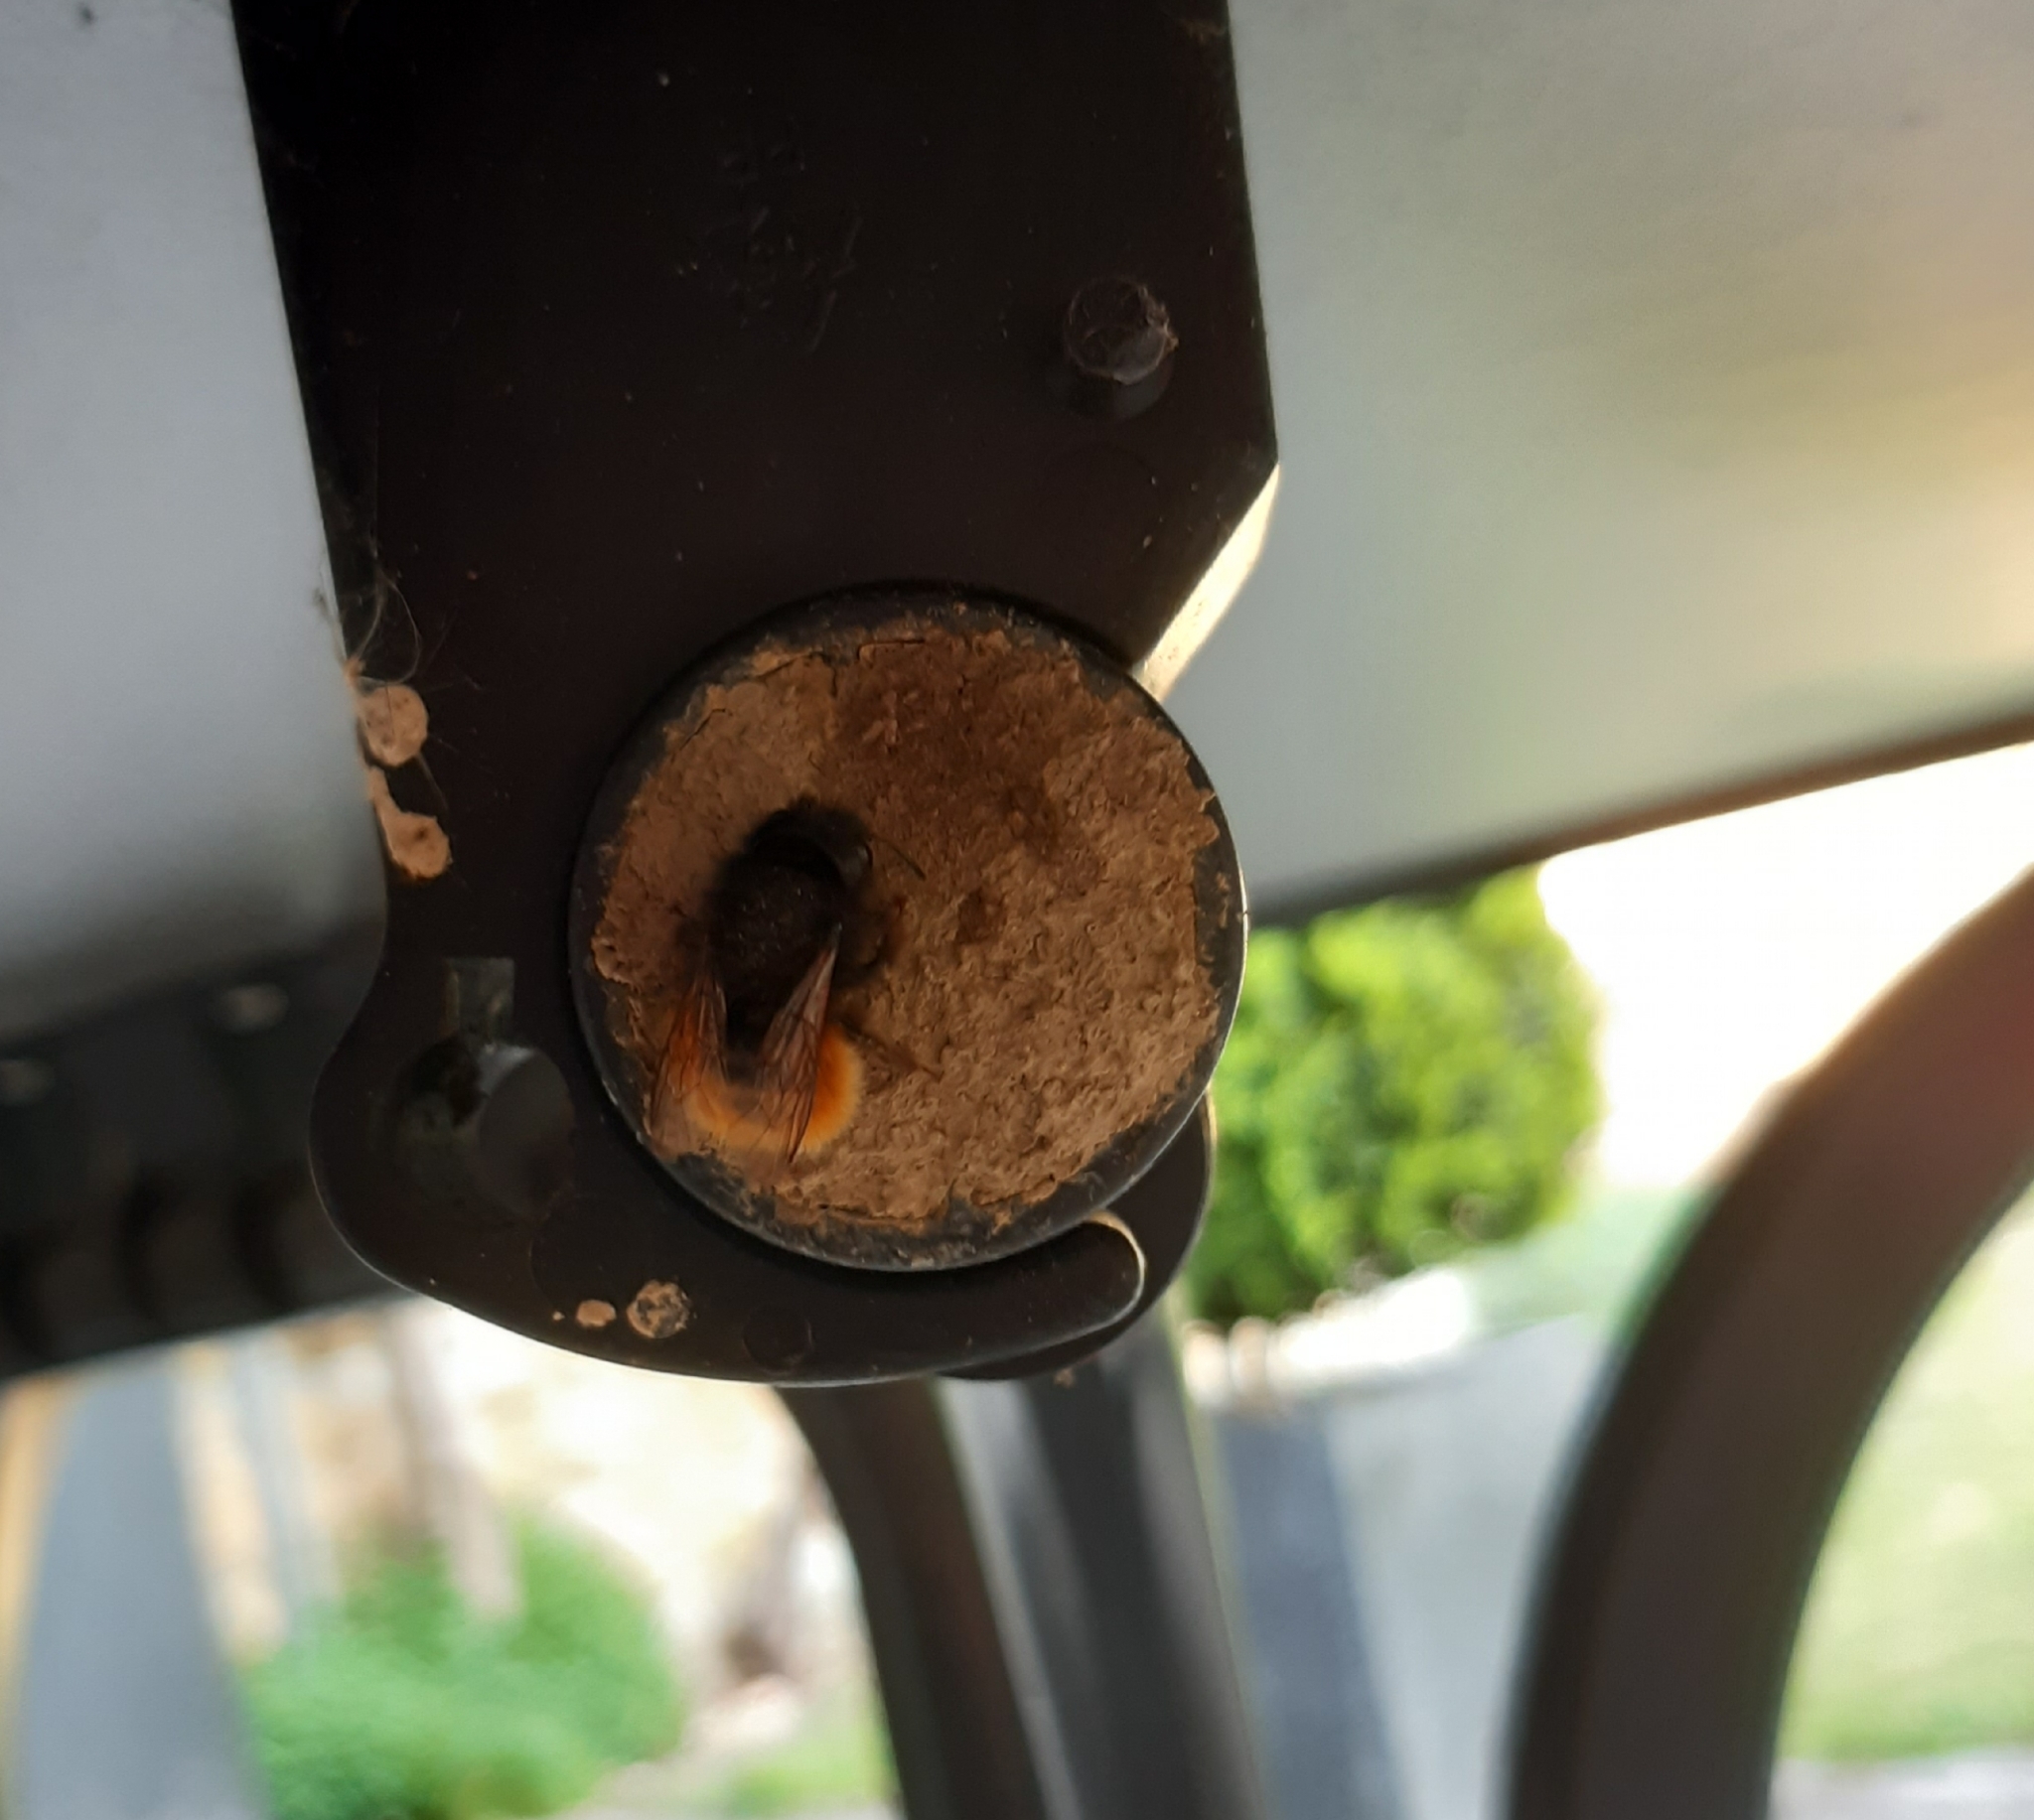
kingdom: Animalia
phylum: Arthropoda
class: Insecta
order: Hymenoptera
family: Megachilidae
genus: Osmia
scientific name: Osmia cornuta
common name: Mason bee
